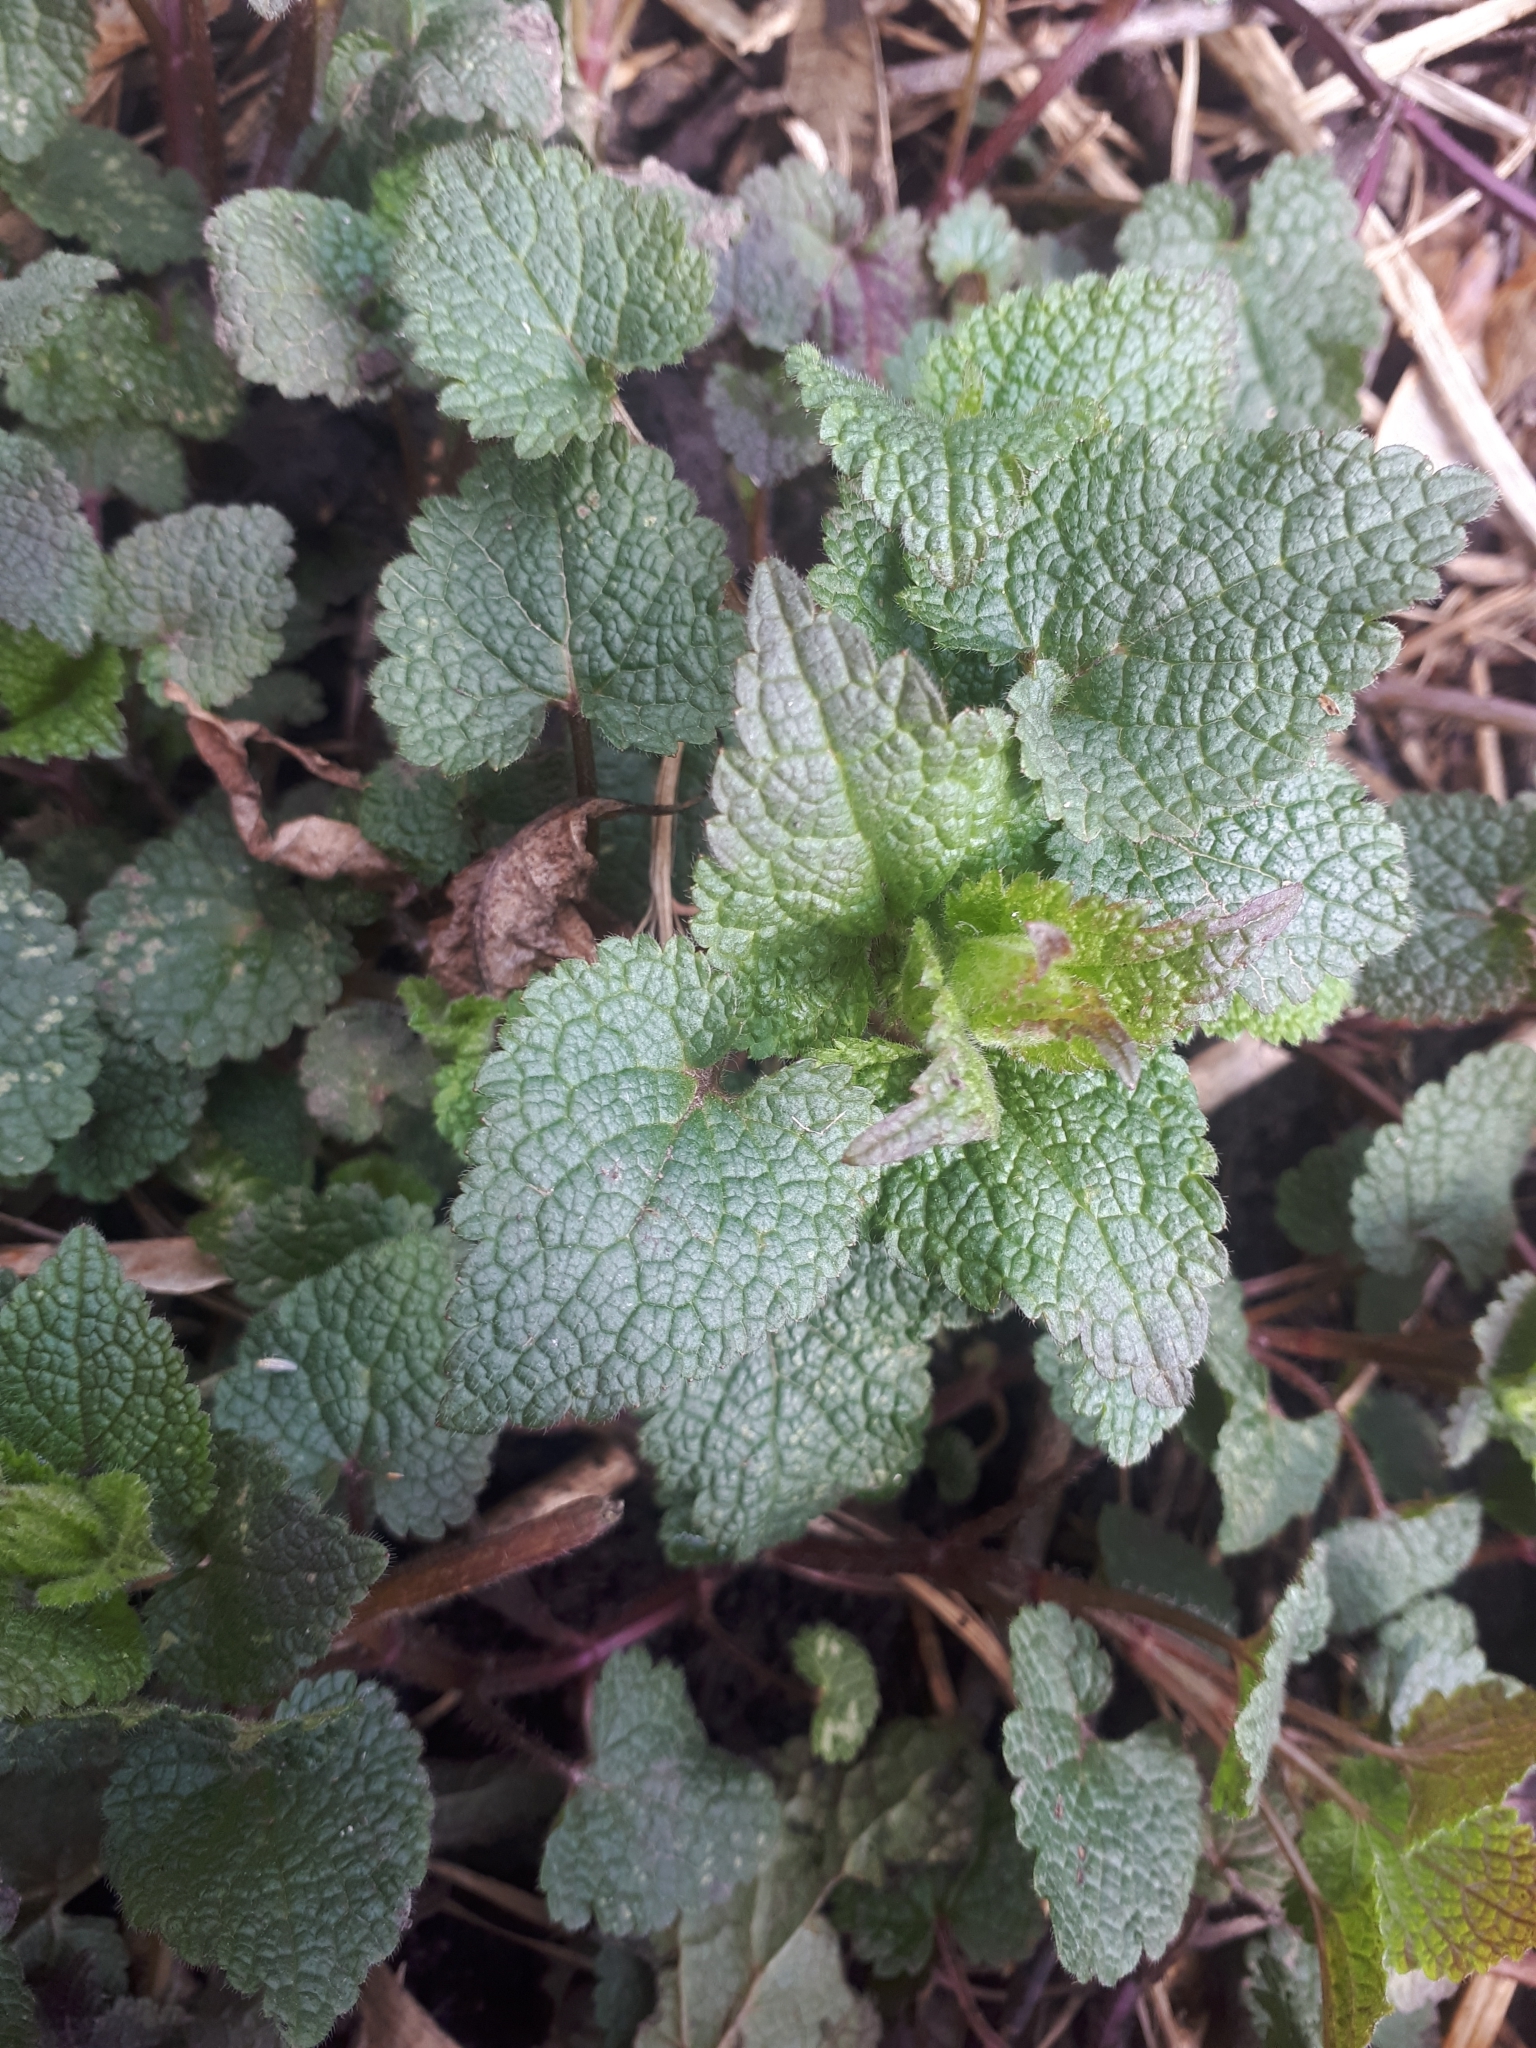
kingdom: Plantae
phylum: Tracheophyta
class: Magnoliopsida
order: Lamiales
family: Lamiaceae
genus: Lamium
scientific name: Lamium album
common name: White dead-nettle
